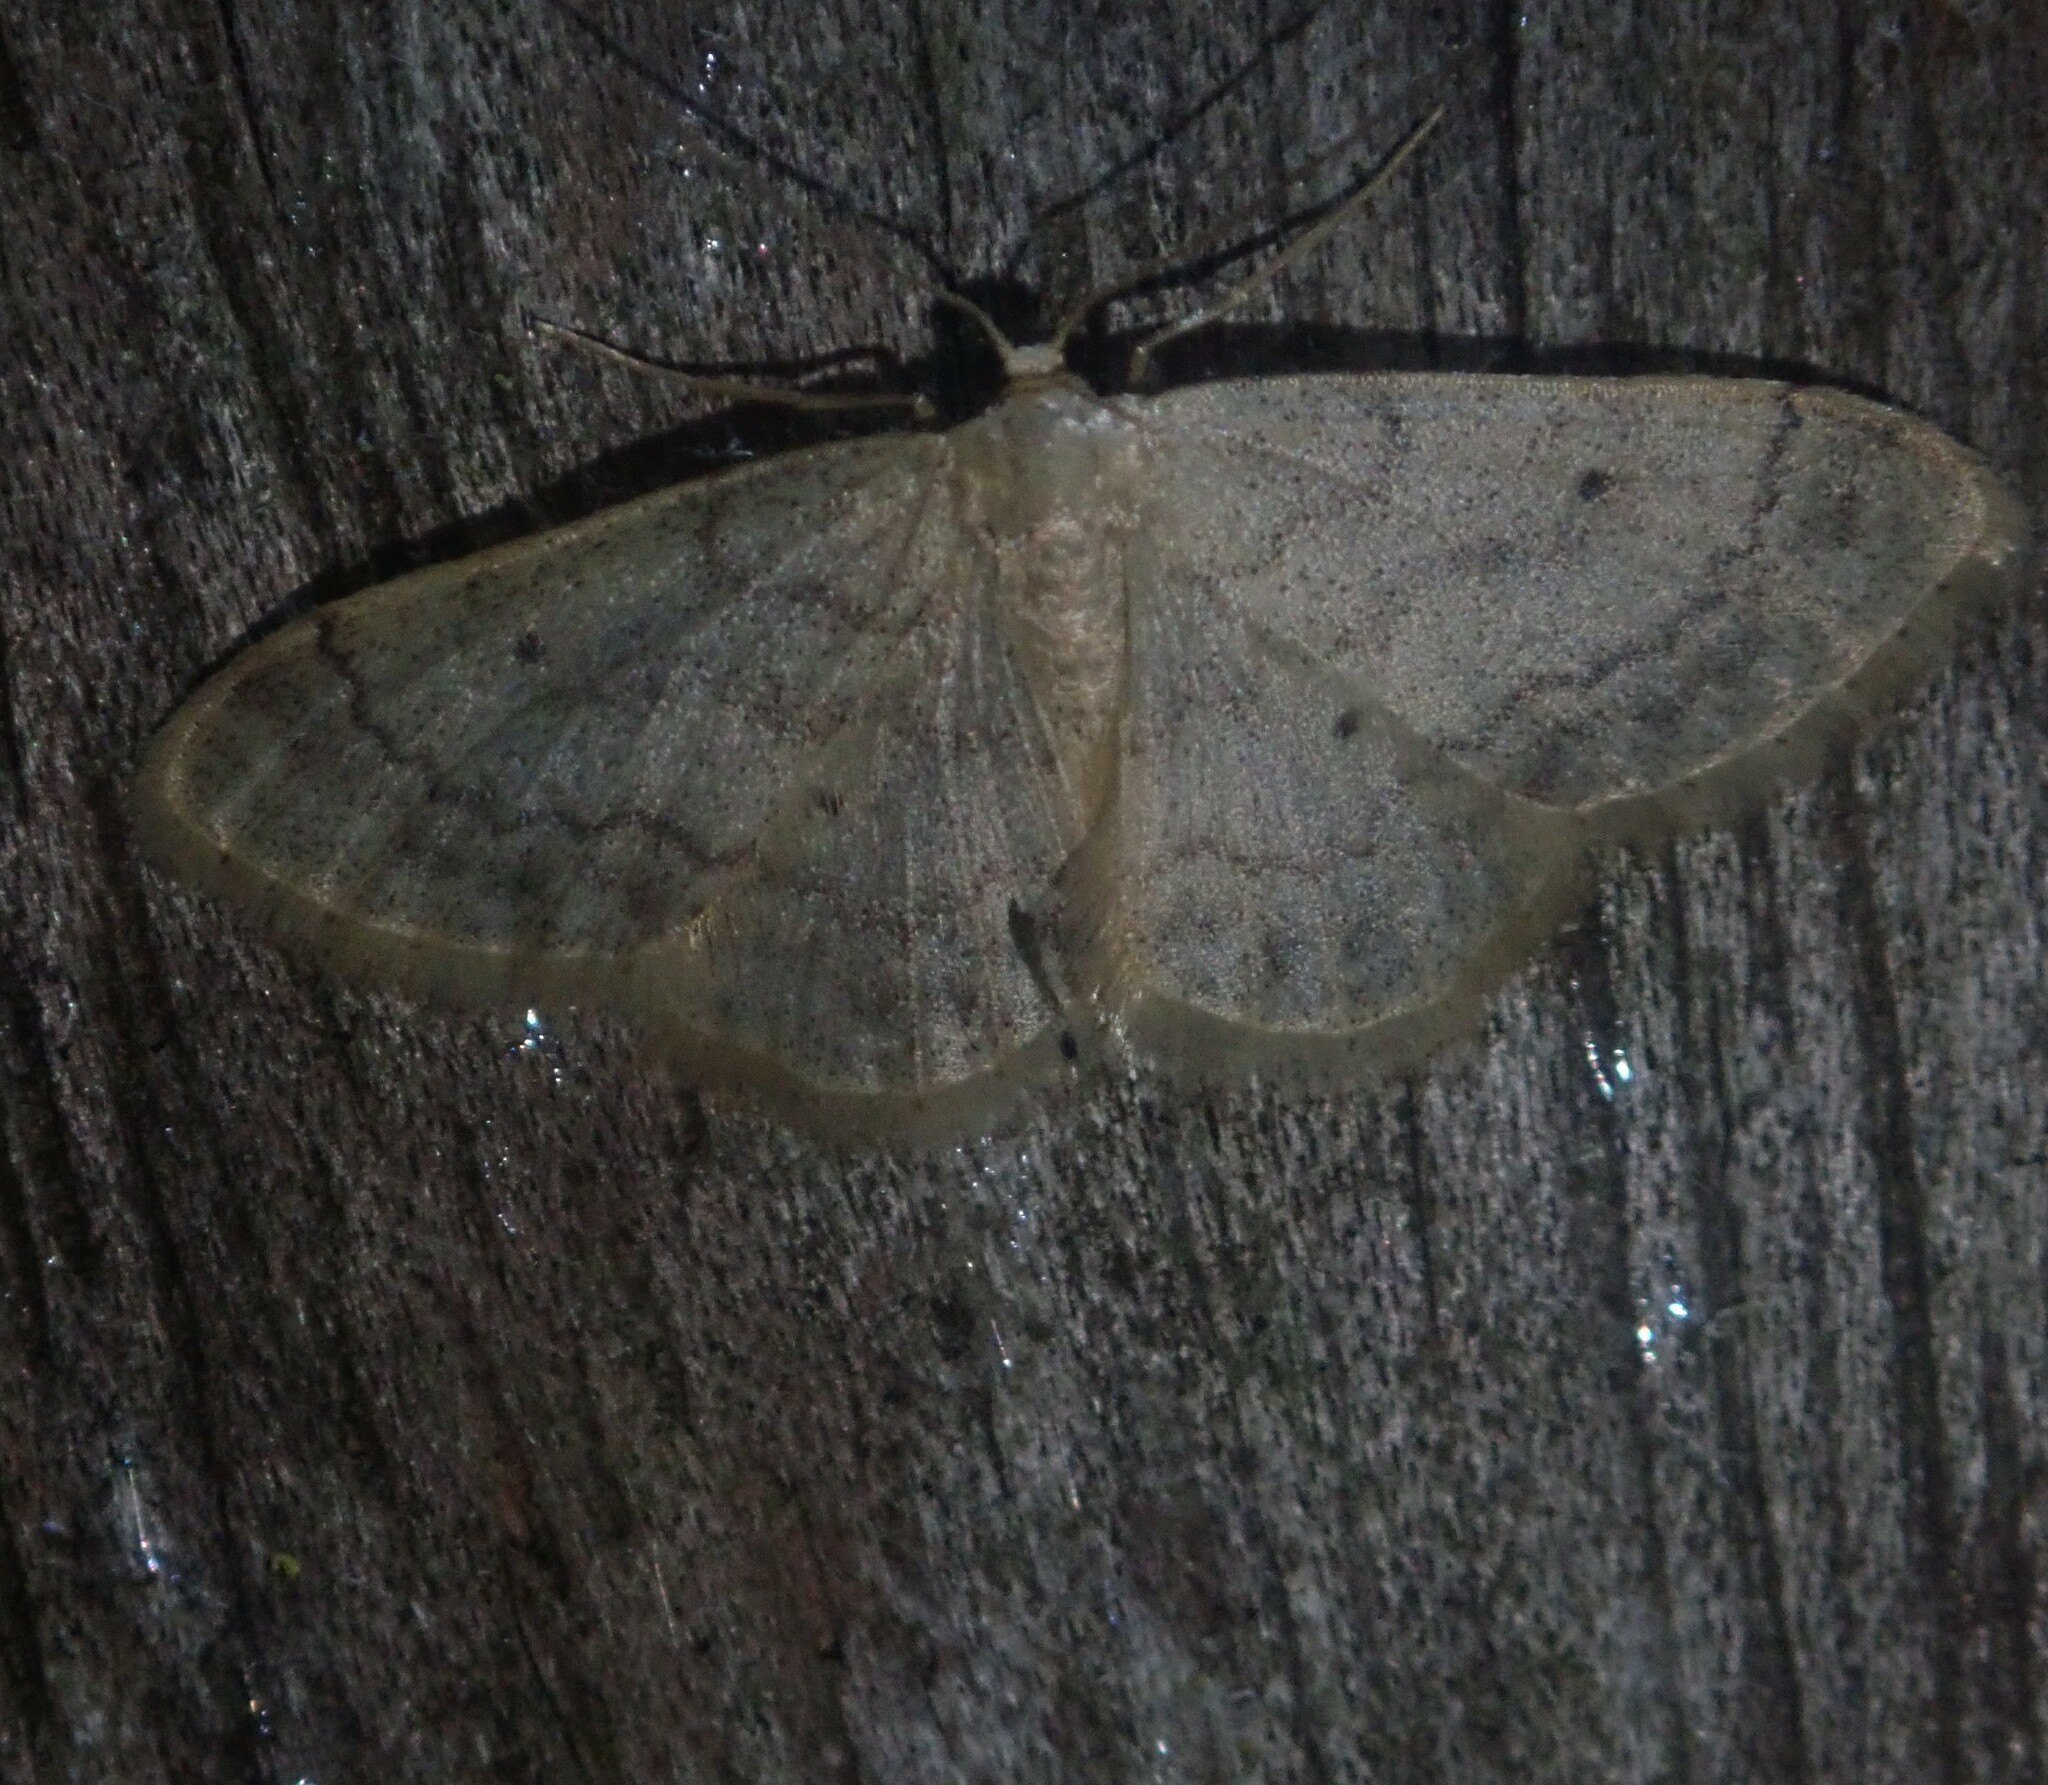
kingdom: Animalia
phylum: Arthropoda
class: Insecta
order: Lepidoptera
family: Geometridae
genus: Idaea
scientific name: Idaea biselata
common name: Small fan-footed wave
